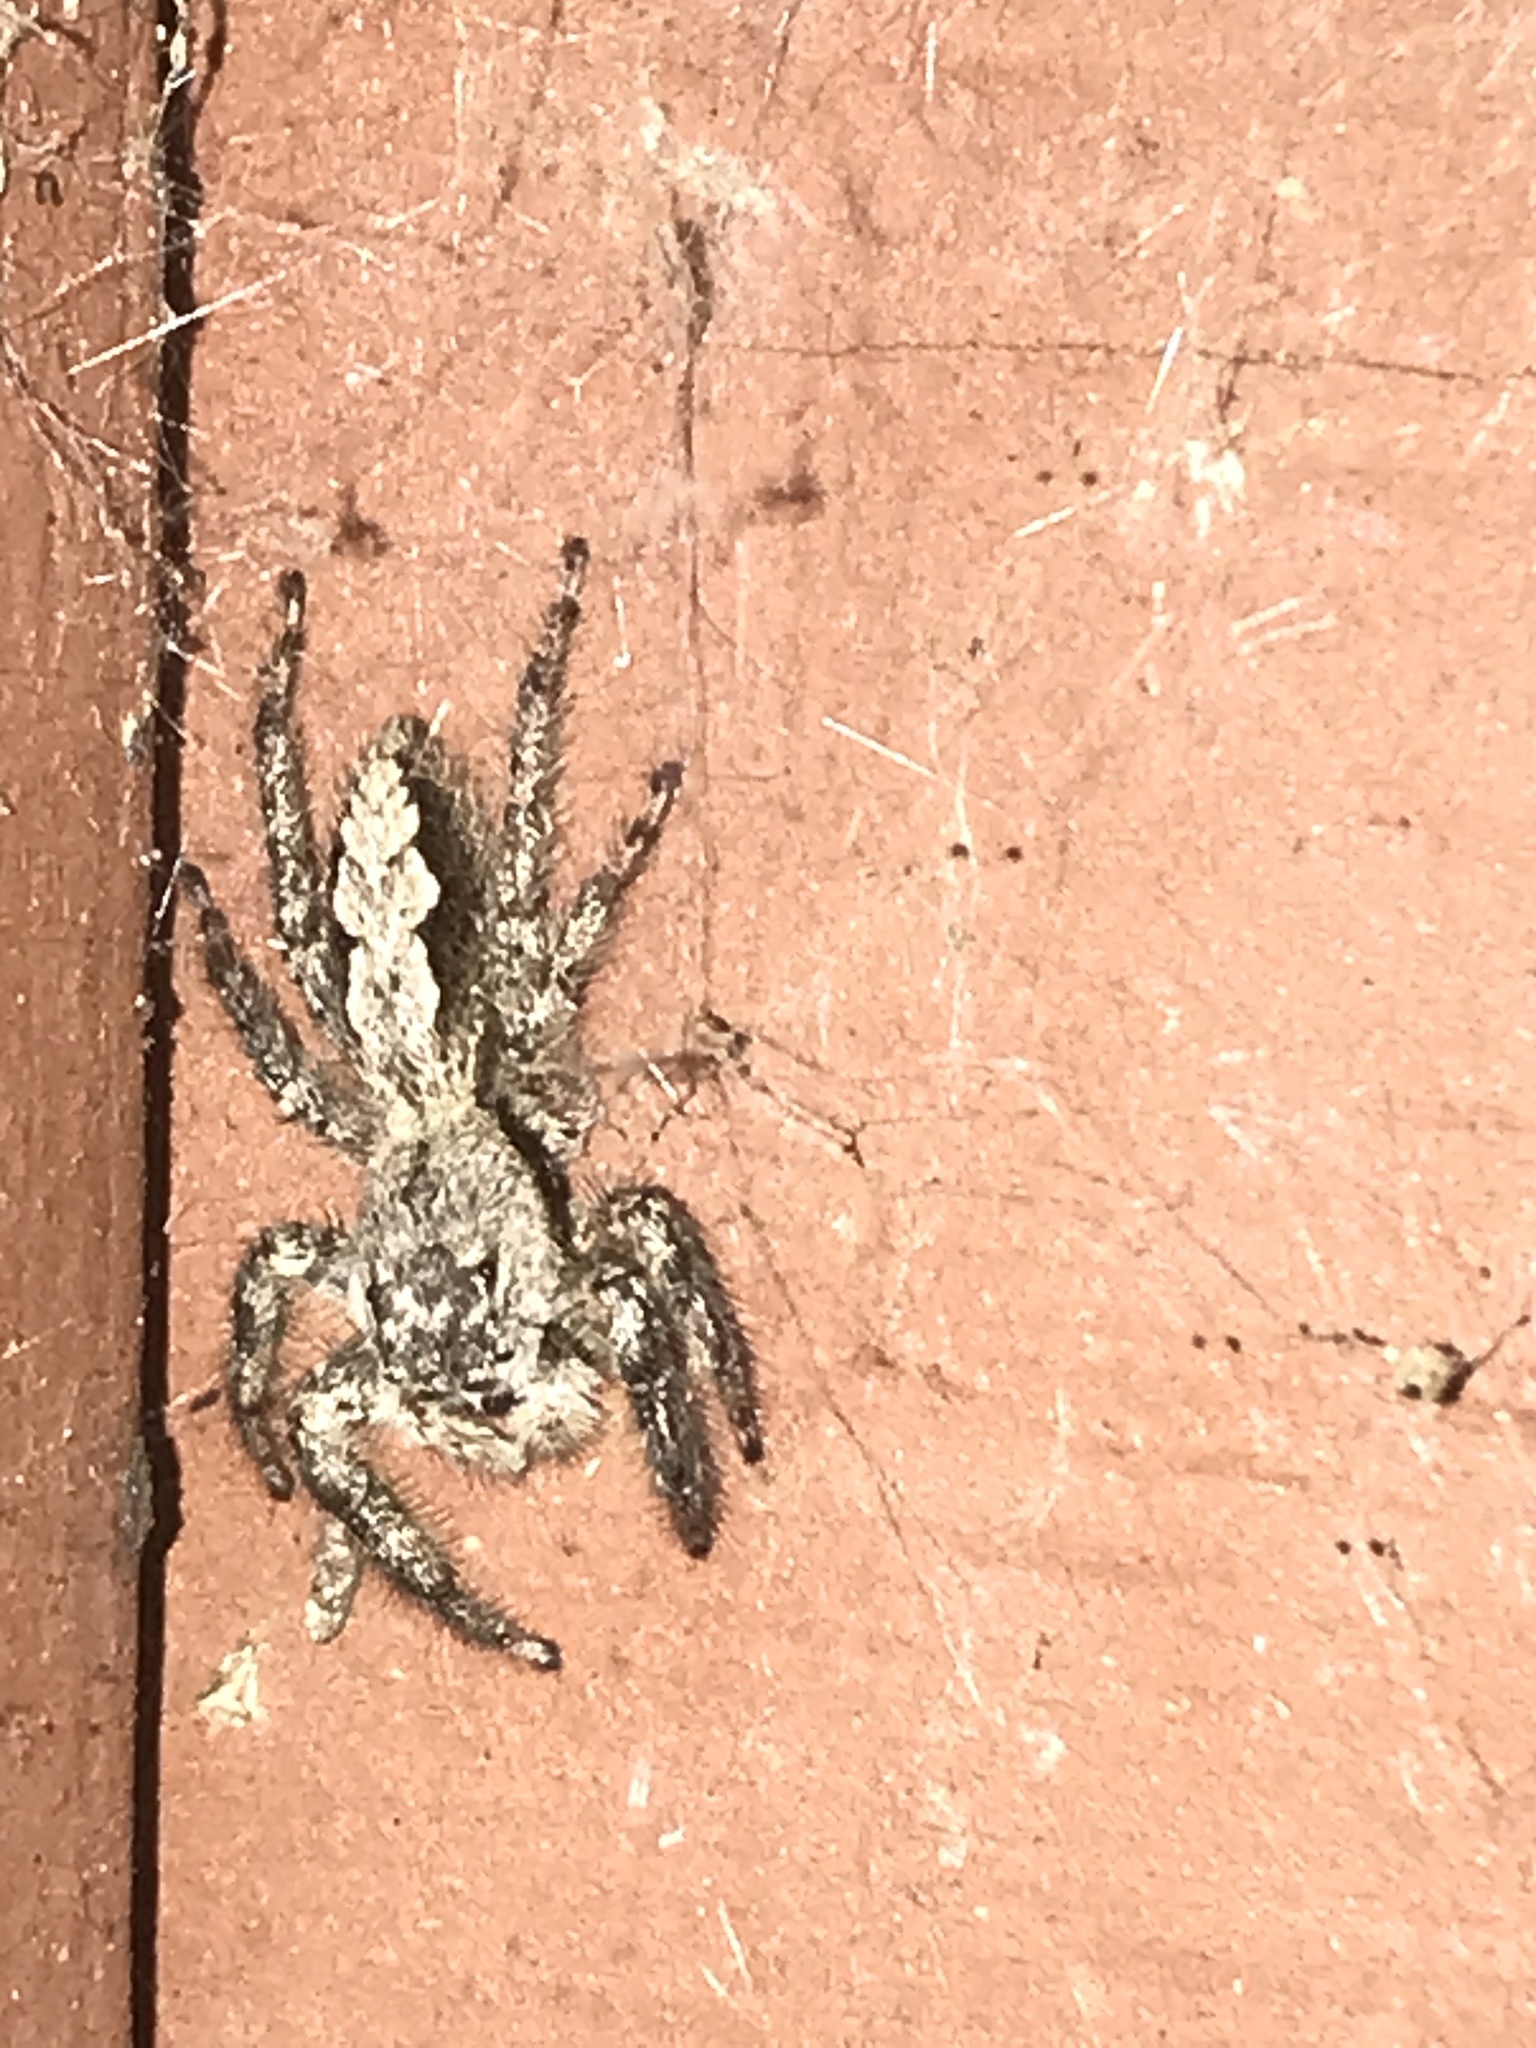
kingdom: Animalia
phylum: Arthropoda
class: Arachnida
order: Araneae
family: Salticidae
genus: Platycryptus
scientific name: Platycryptus undatus
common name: Tan jumping spider
